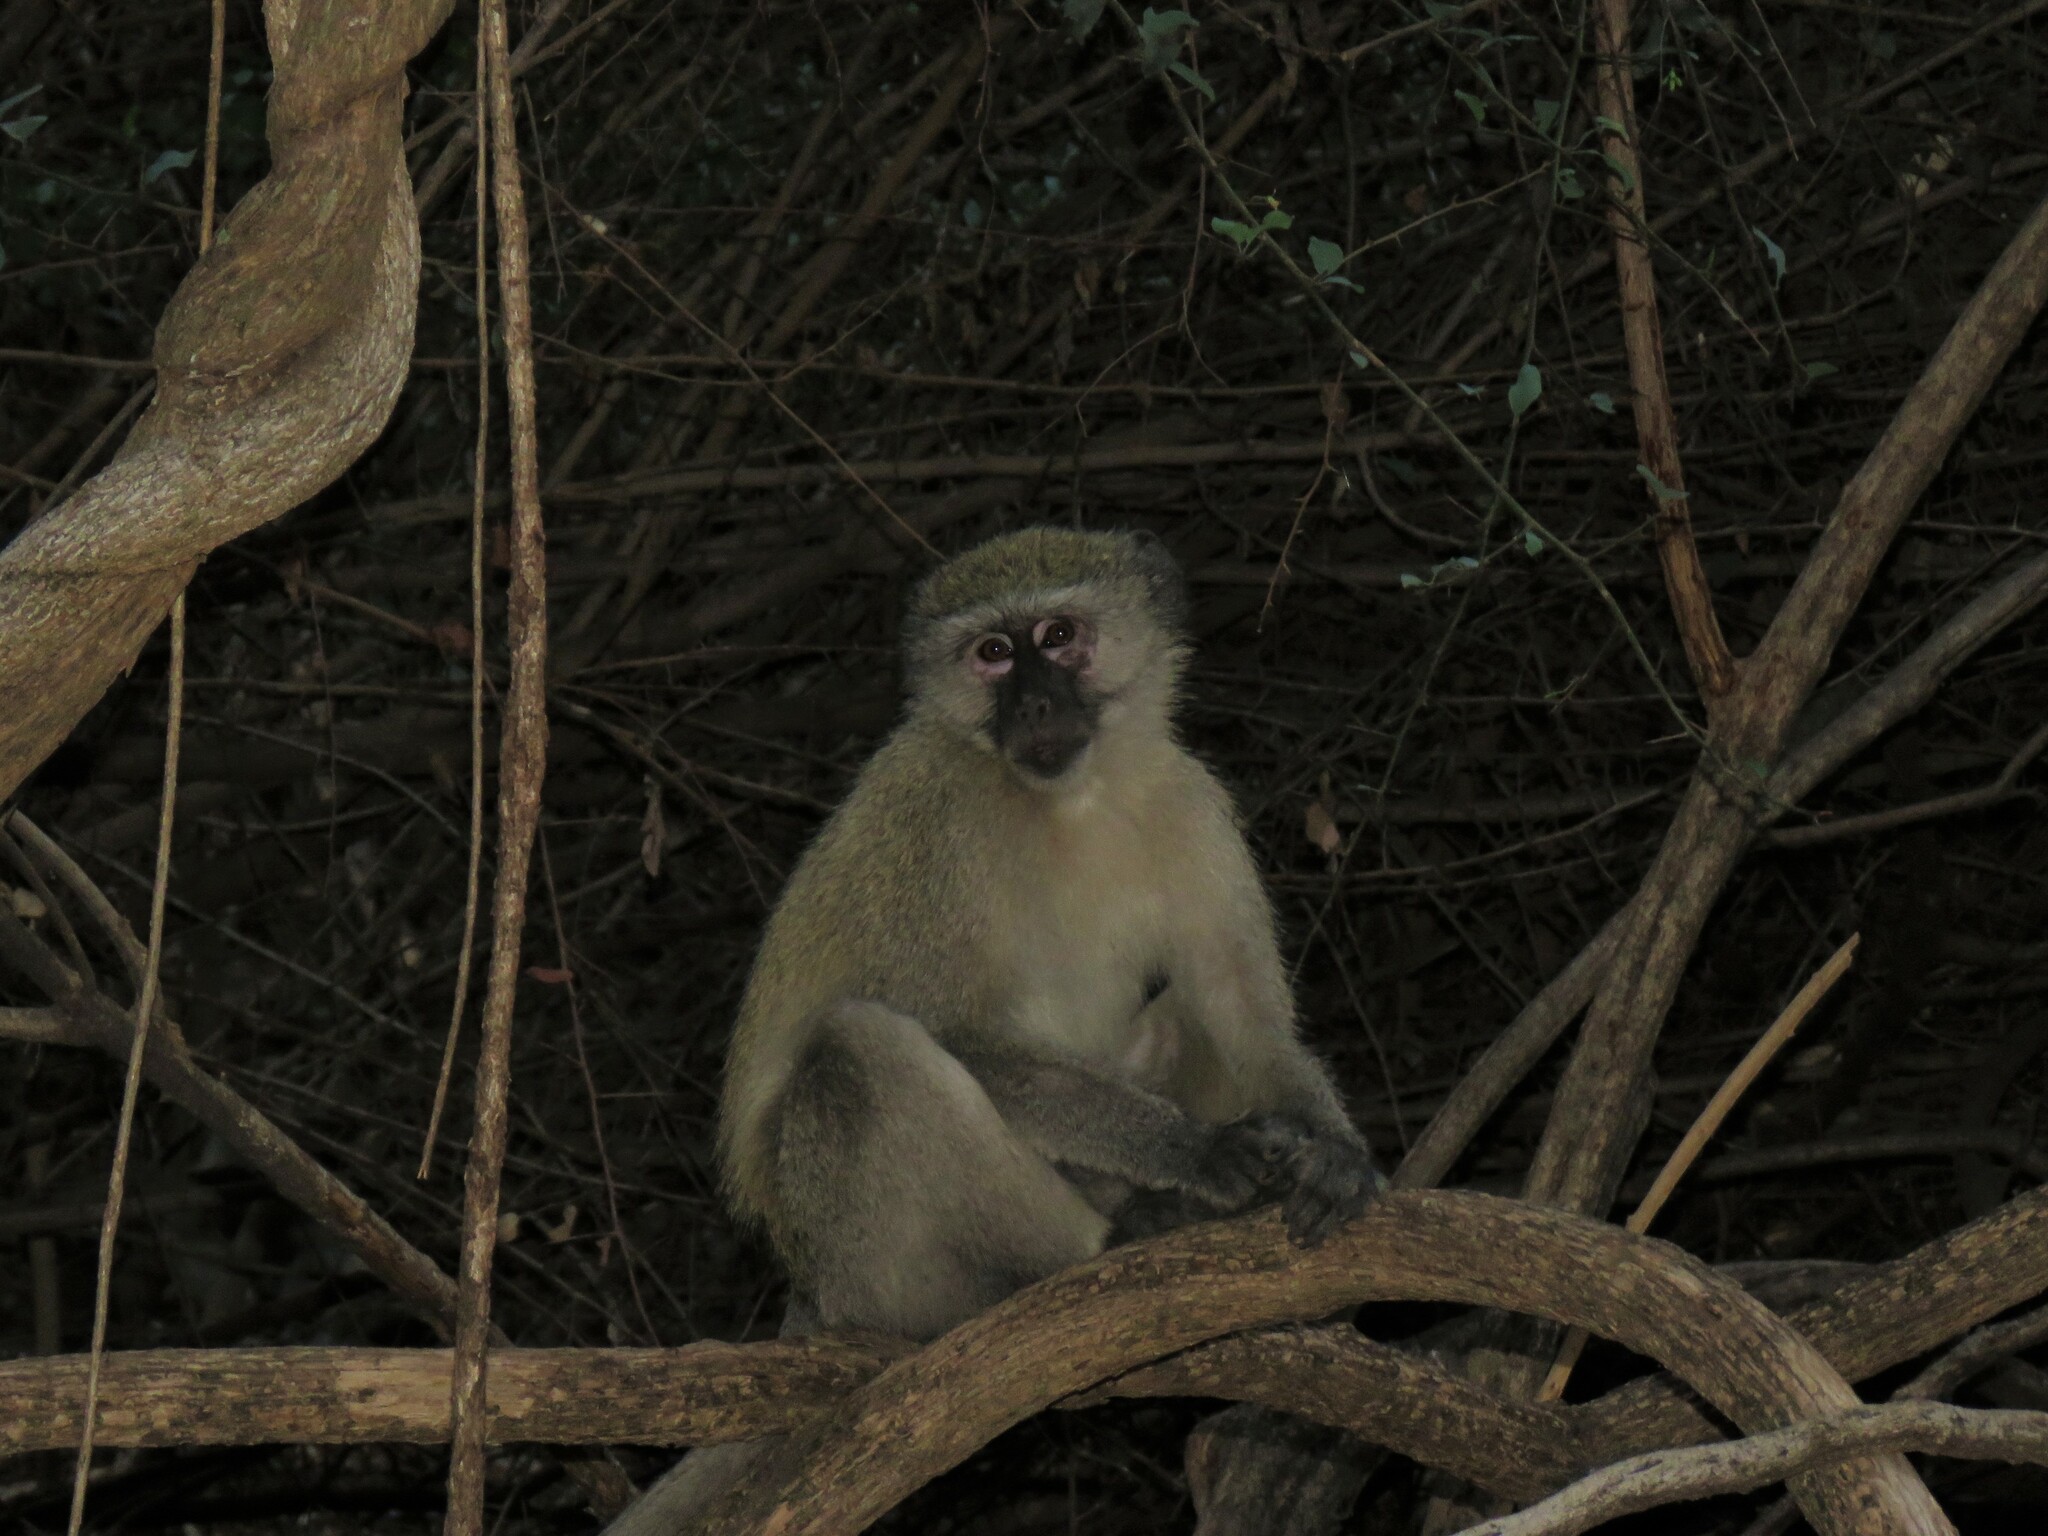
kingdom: Animalia
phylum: Chordata
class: Mammalia
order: Primates
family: Cercopithecidae
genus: Chlorocebus
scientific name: Chlorocebus cynosuros
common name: Malbrouck
